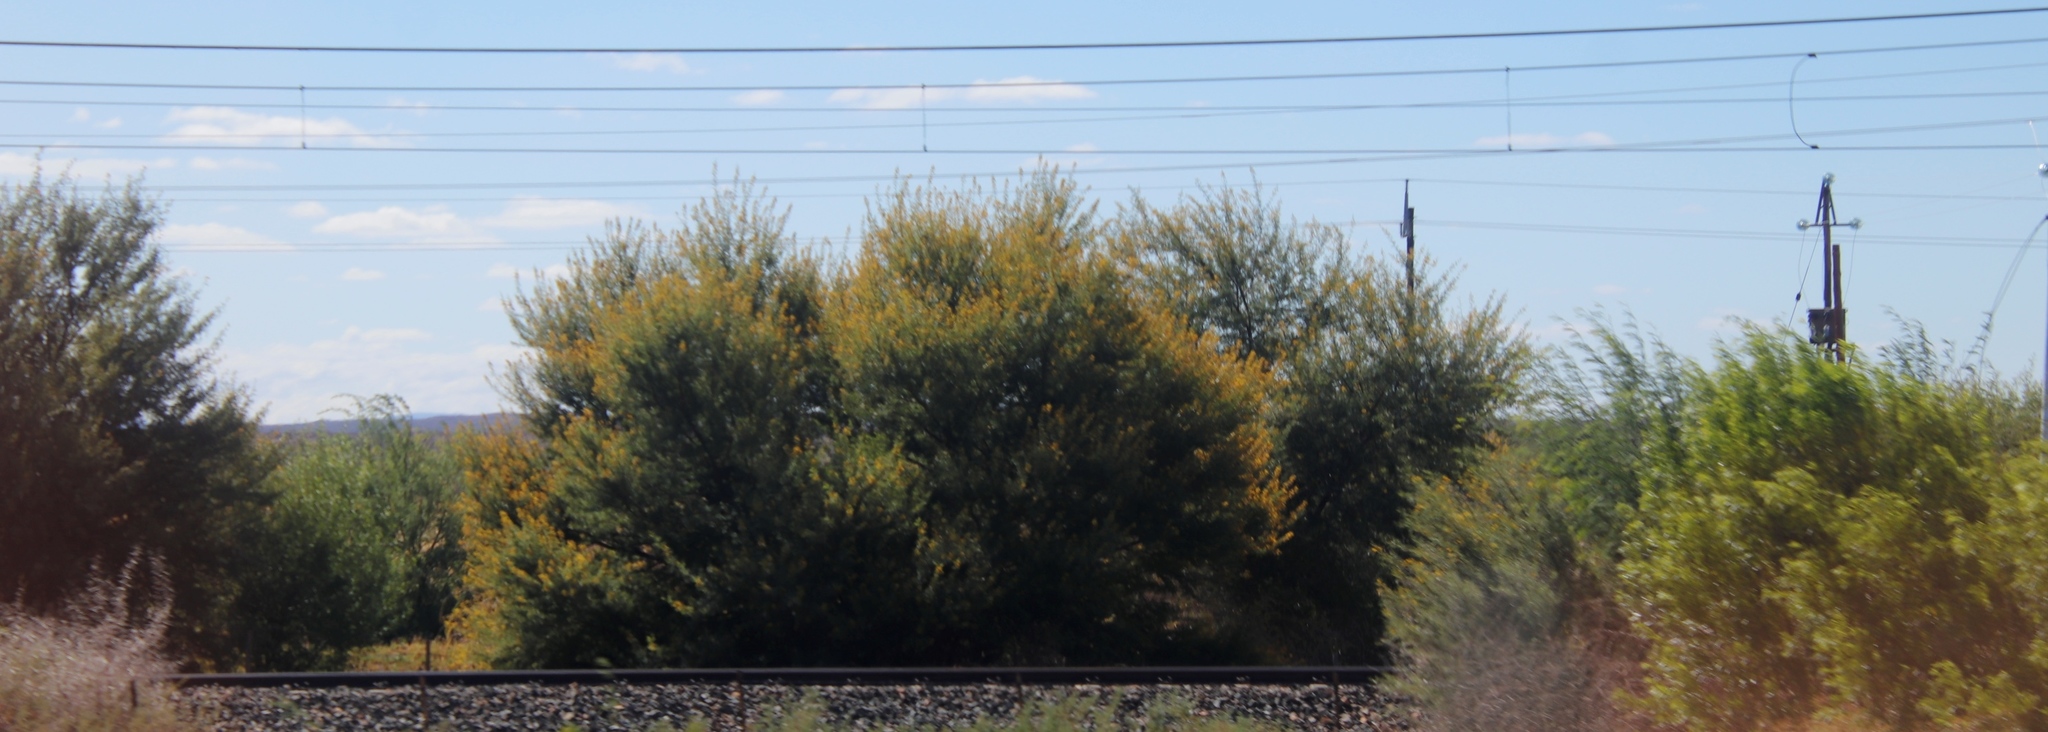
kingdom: Plantae
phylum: Tracheophyta
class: Magnoliopsida
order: Fabales
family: Fabaceae
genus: Vachellia
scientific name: Vachellia karroo
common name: Sweet thorn
